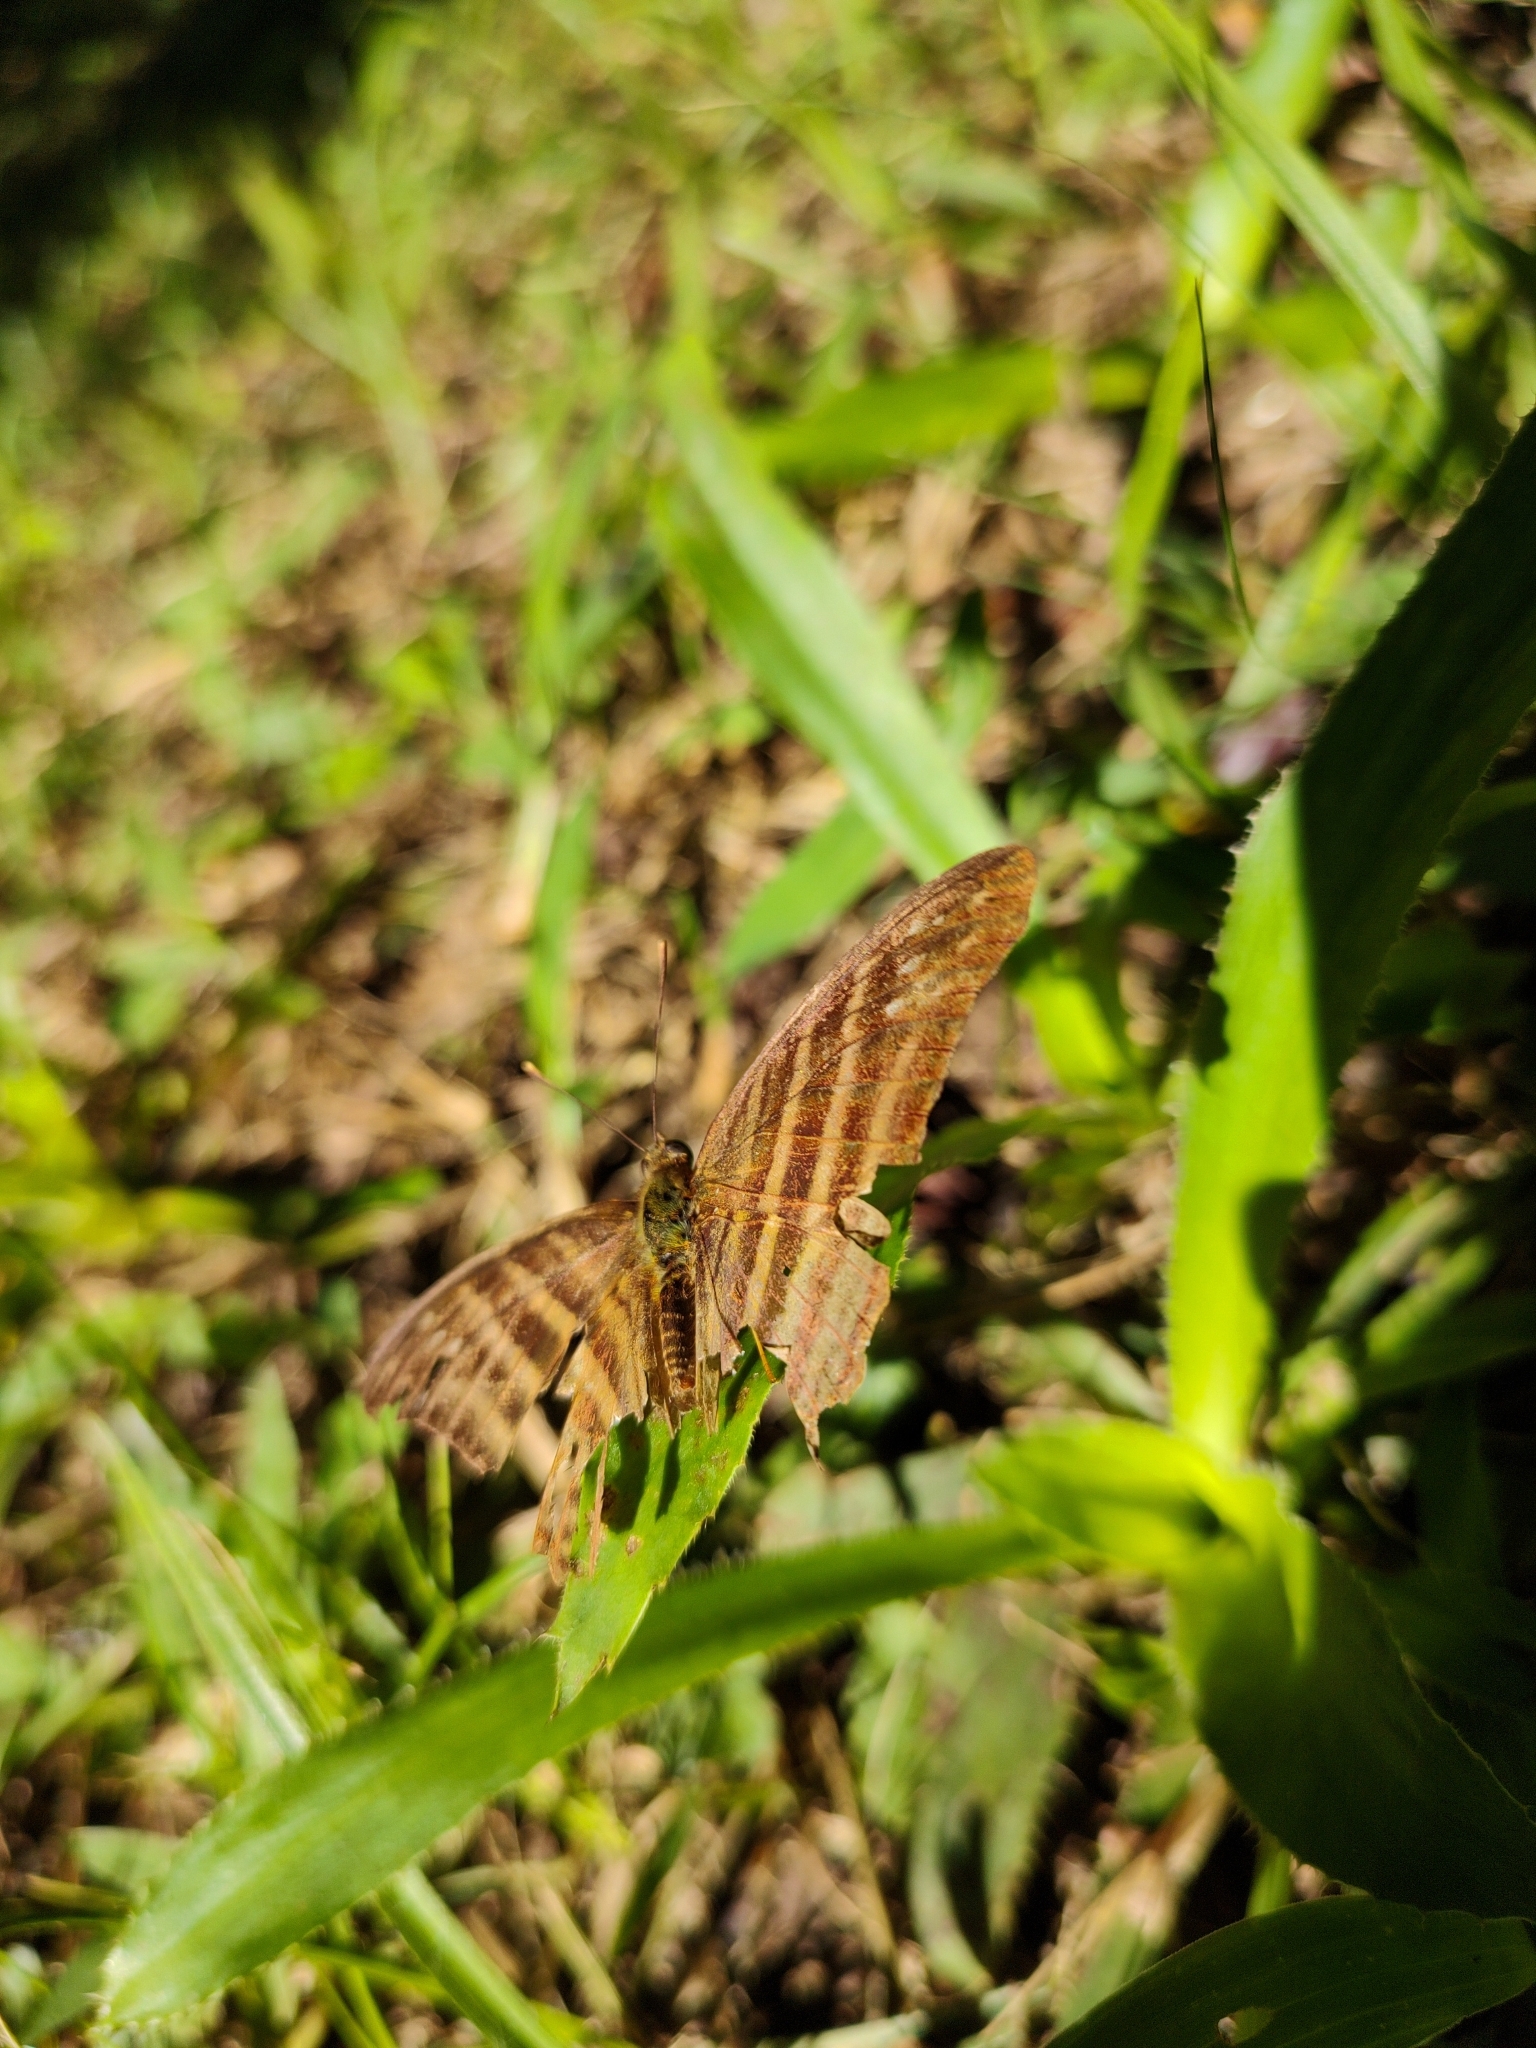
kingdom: Animalia
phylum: Arthropoda
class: Insecta
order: Lepidoptera
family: Nymphalidae
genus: Marpesia
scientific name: Marpesia chiron
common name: Many-banded daggerwing
